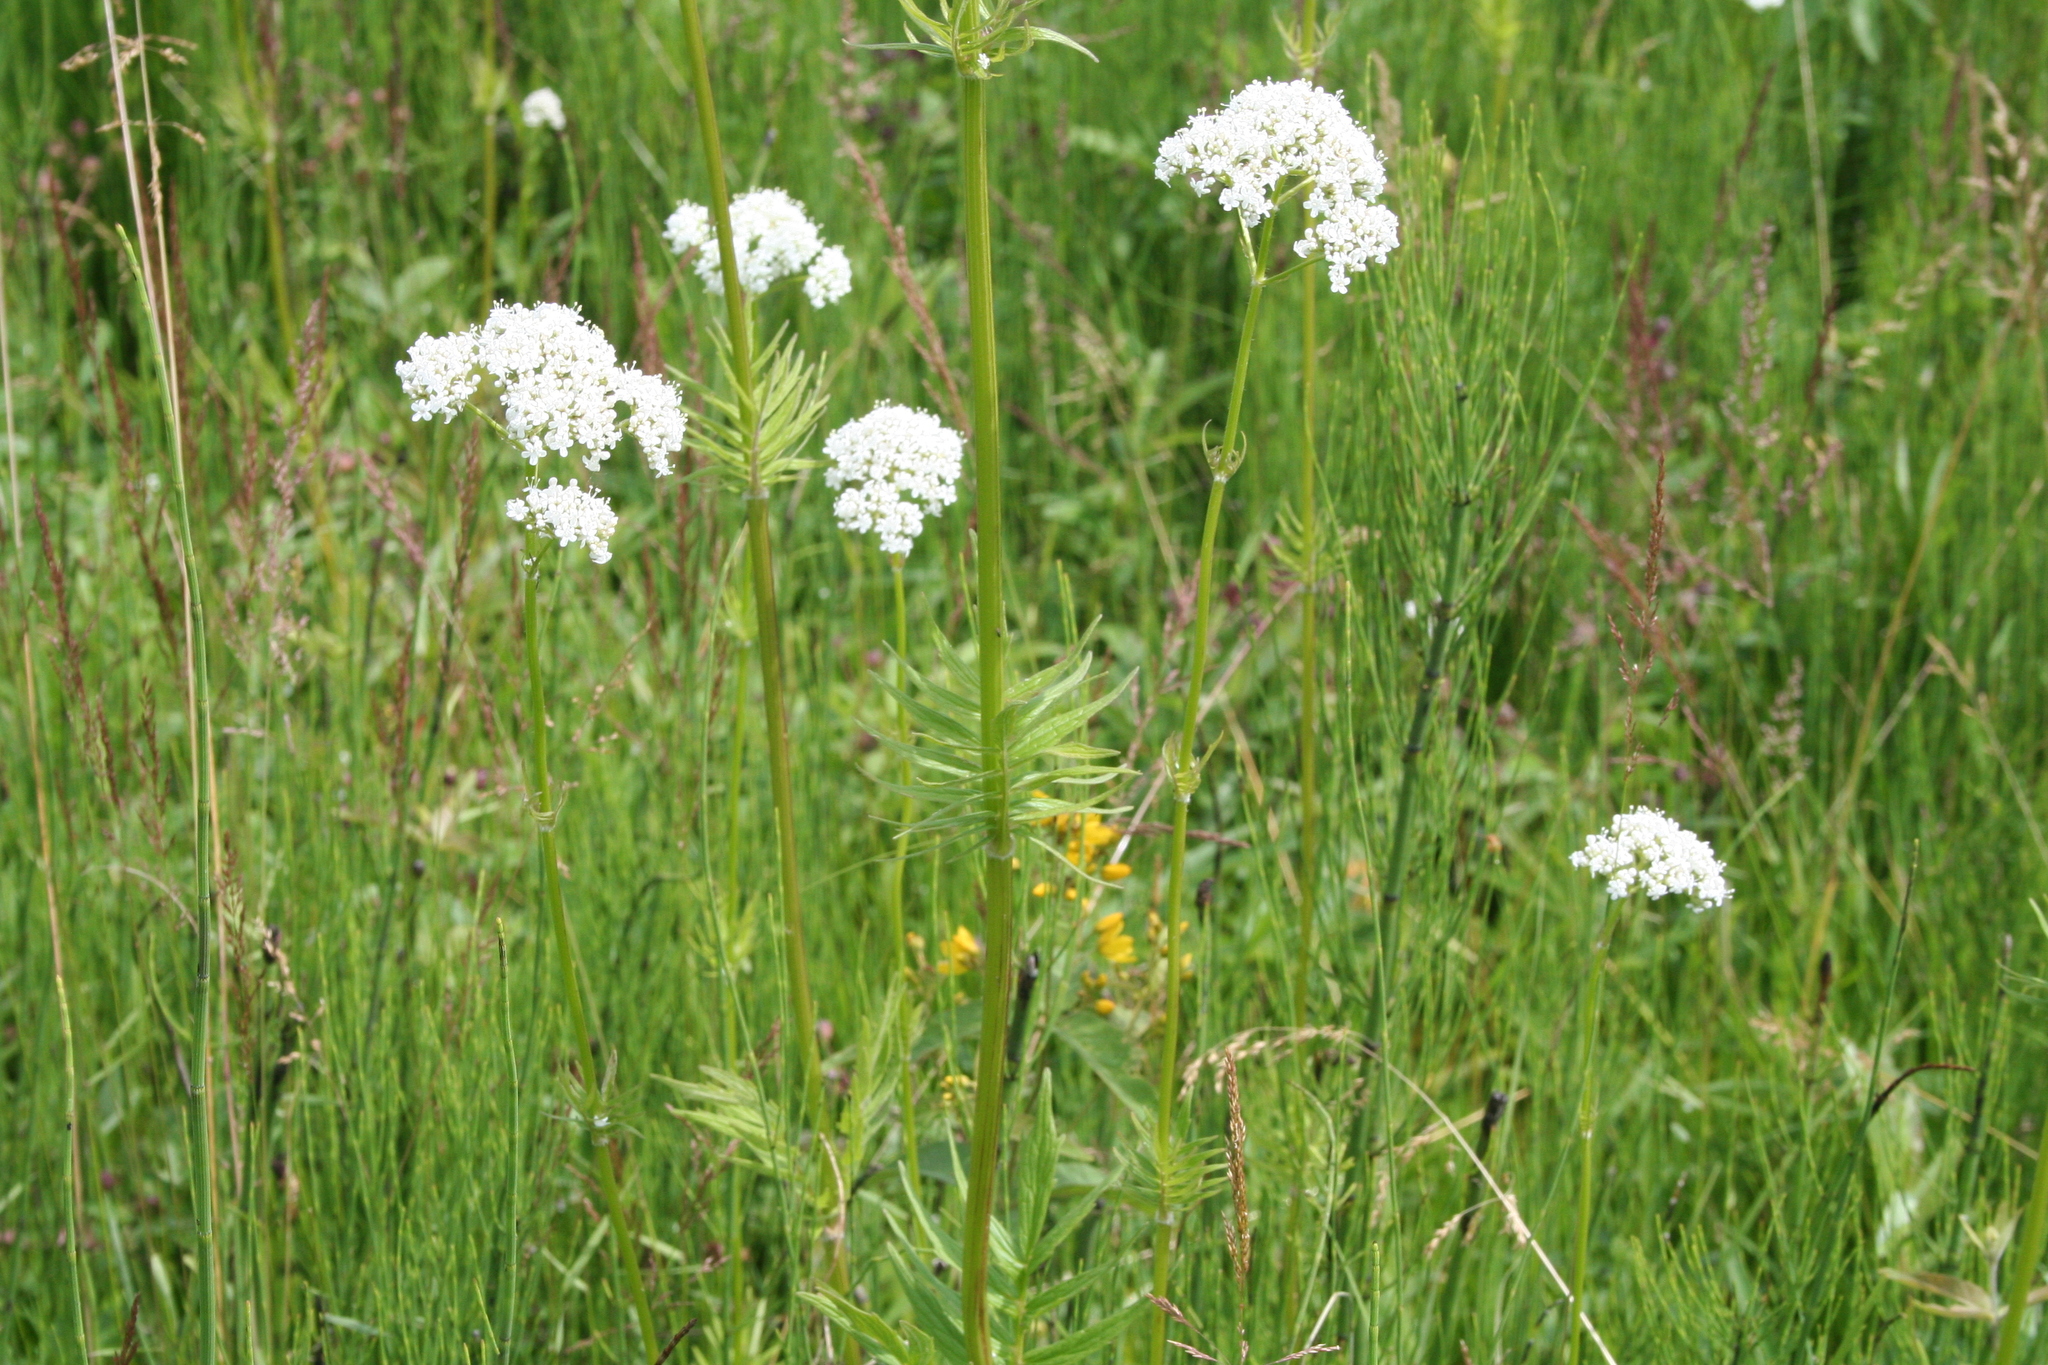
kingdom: Plantae
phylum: Tracheophyta
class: Magnoliopsida
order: Dipsacales
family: Caprifoliaceae
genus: Valeriana
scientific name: Valeriana officinalis
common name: Common valerian
